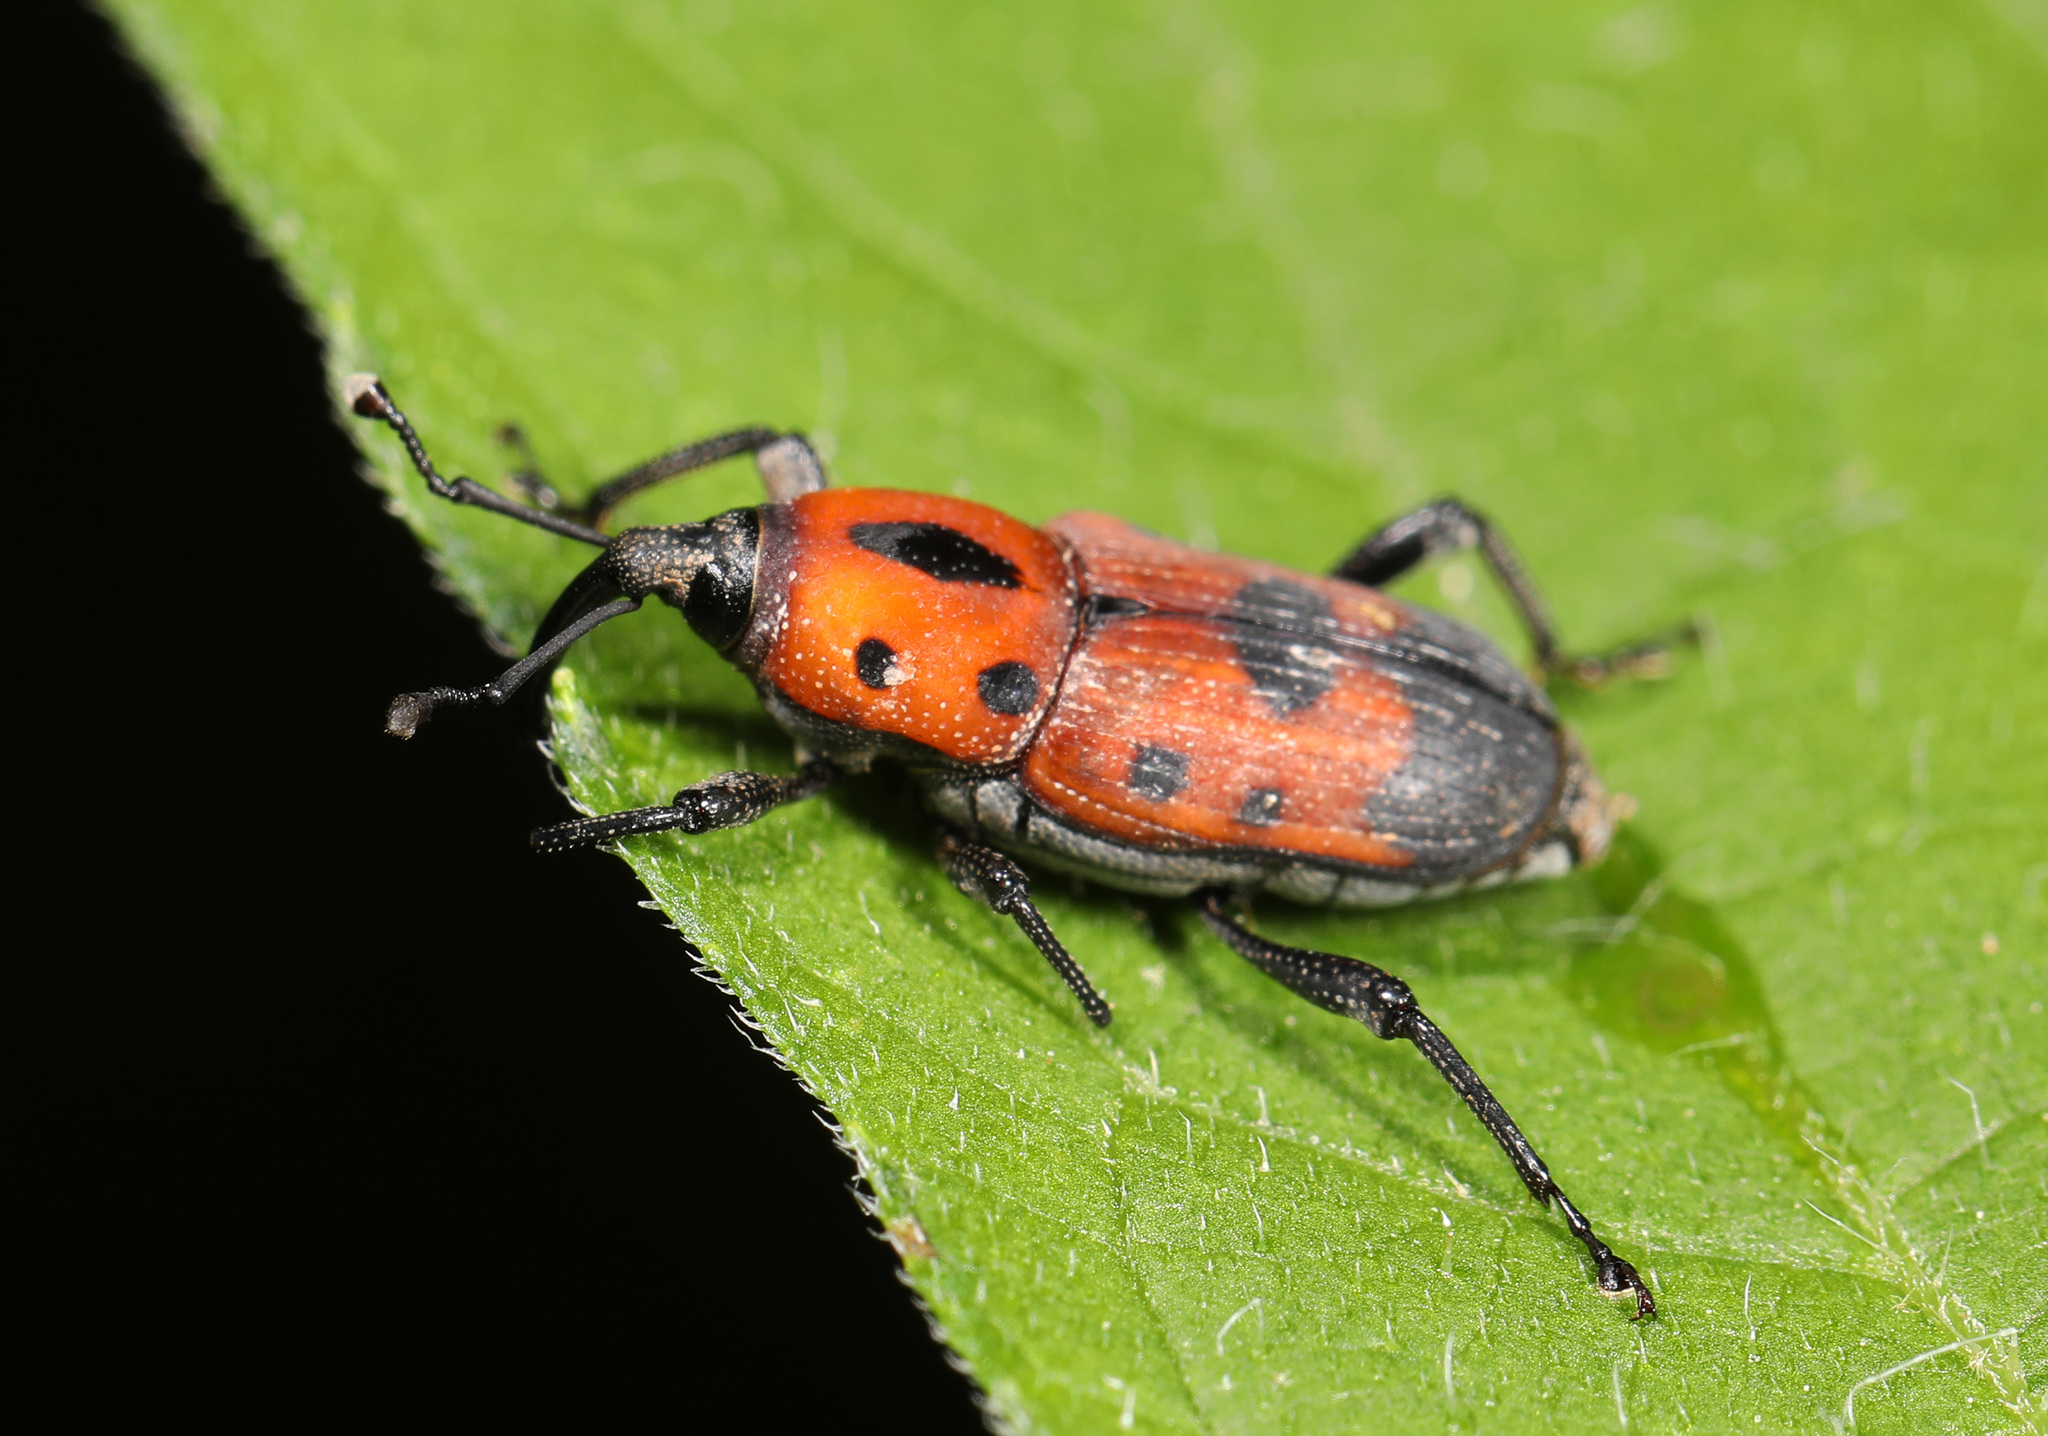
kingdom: Animalia
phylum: Arthropoda
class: Insecta
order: Coleoptera
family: Dryophthoridae
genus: Rhodobaenus
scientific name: Rhodobaenus quinquepunctatus
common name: Cocklebur weevil
